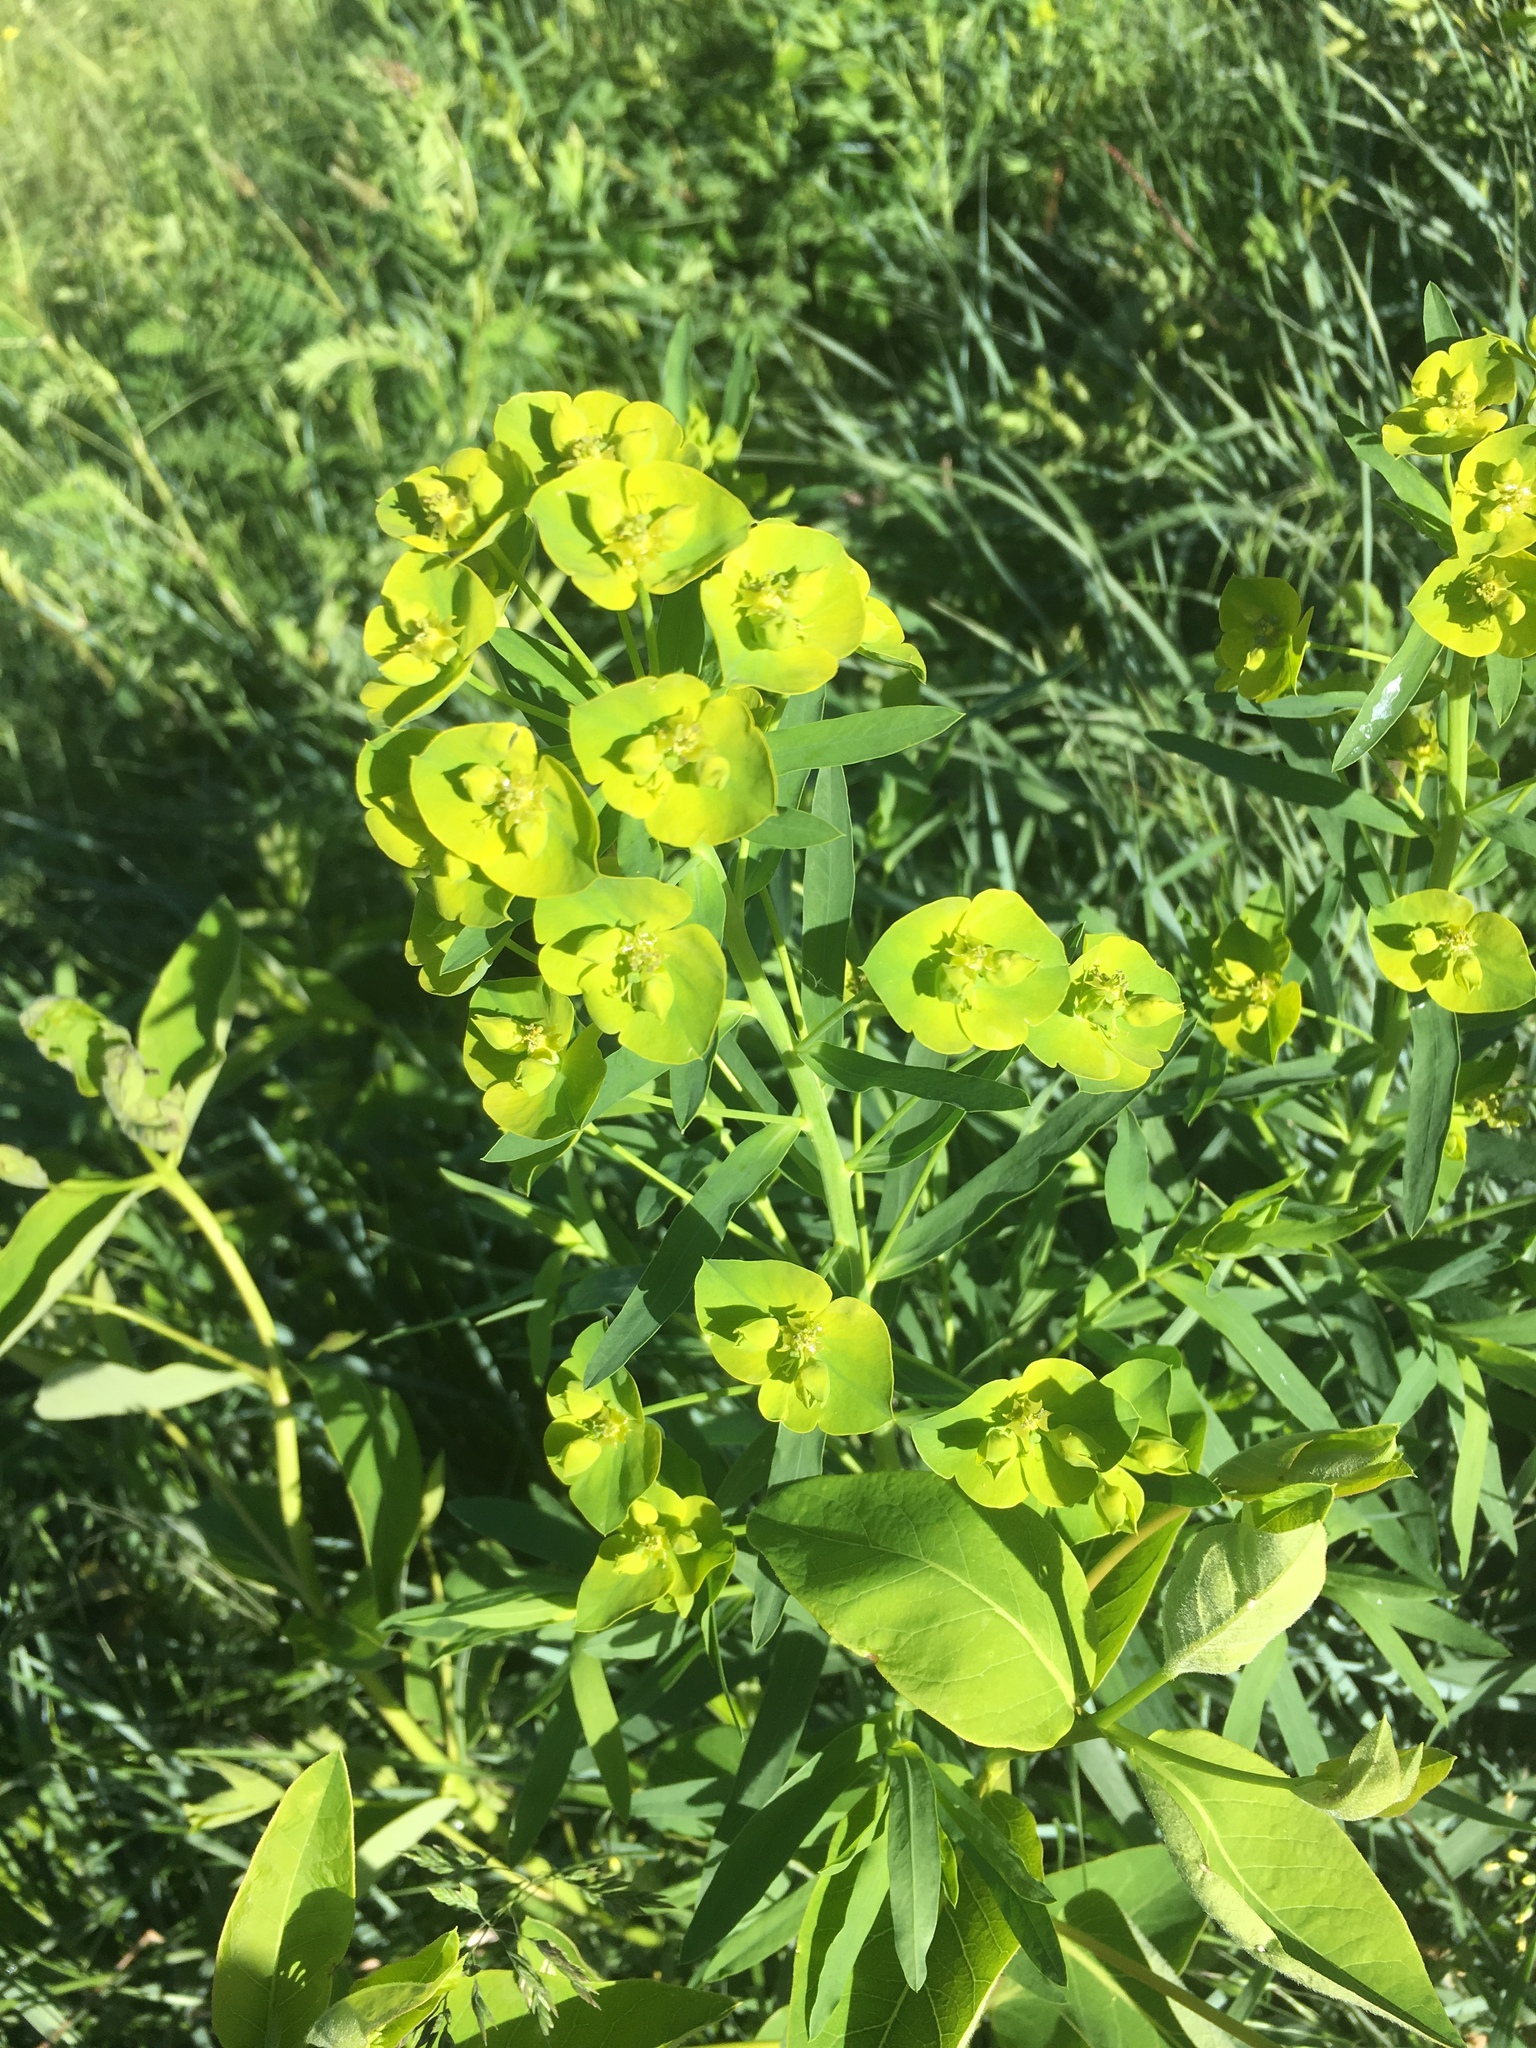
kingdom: Plantae
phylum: Tracheophyta
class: Magnoliopsida
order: Malpighiales
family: Euphorbiaceae
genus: Euphorbia
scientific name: Euphorbia virgata
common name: Leafy spurge
